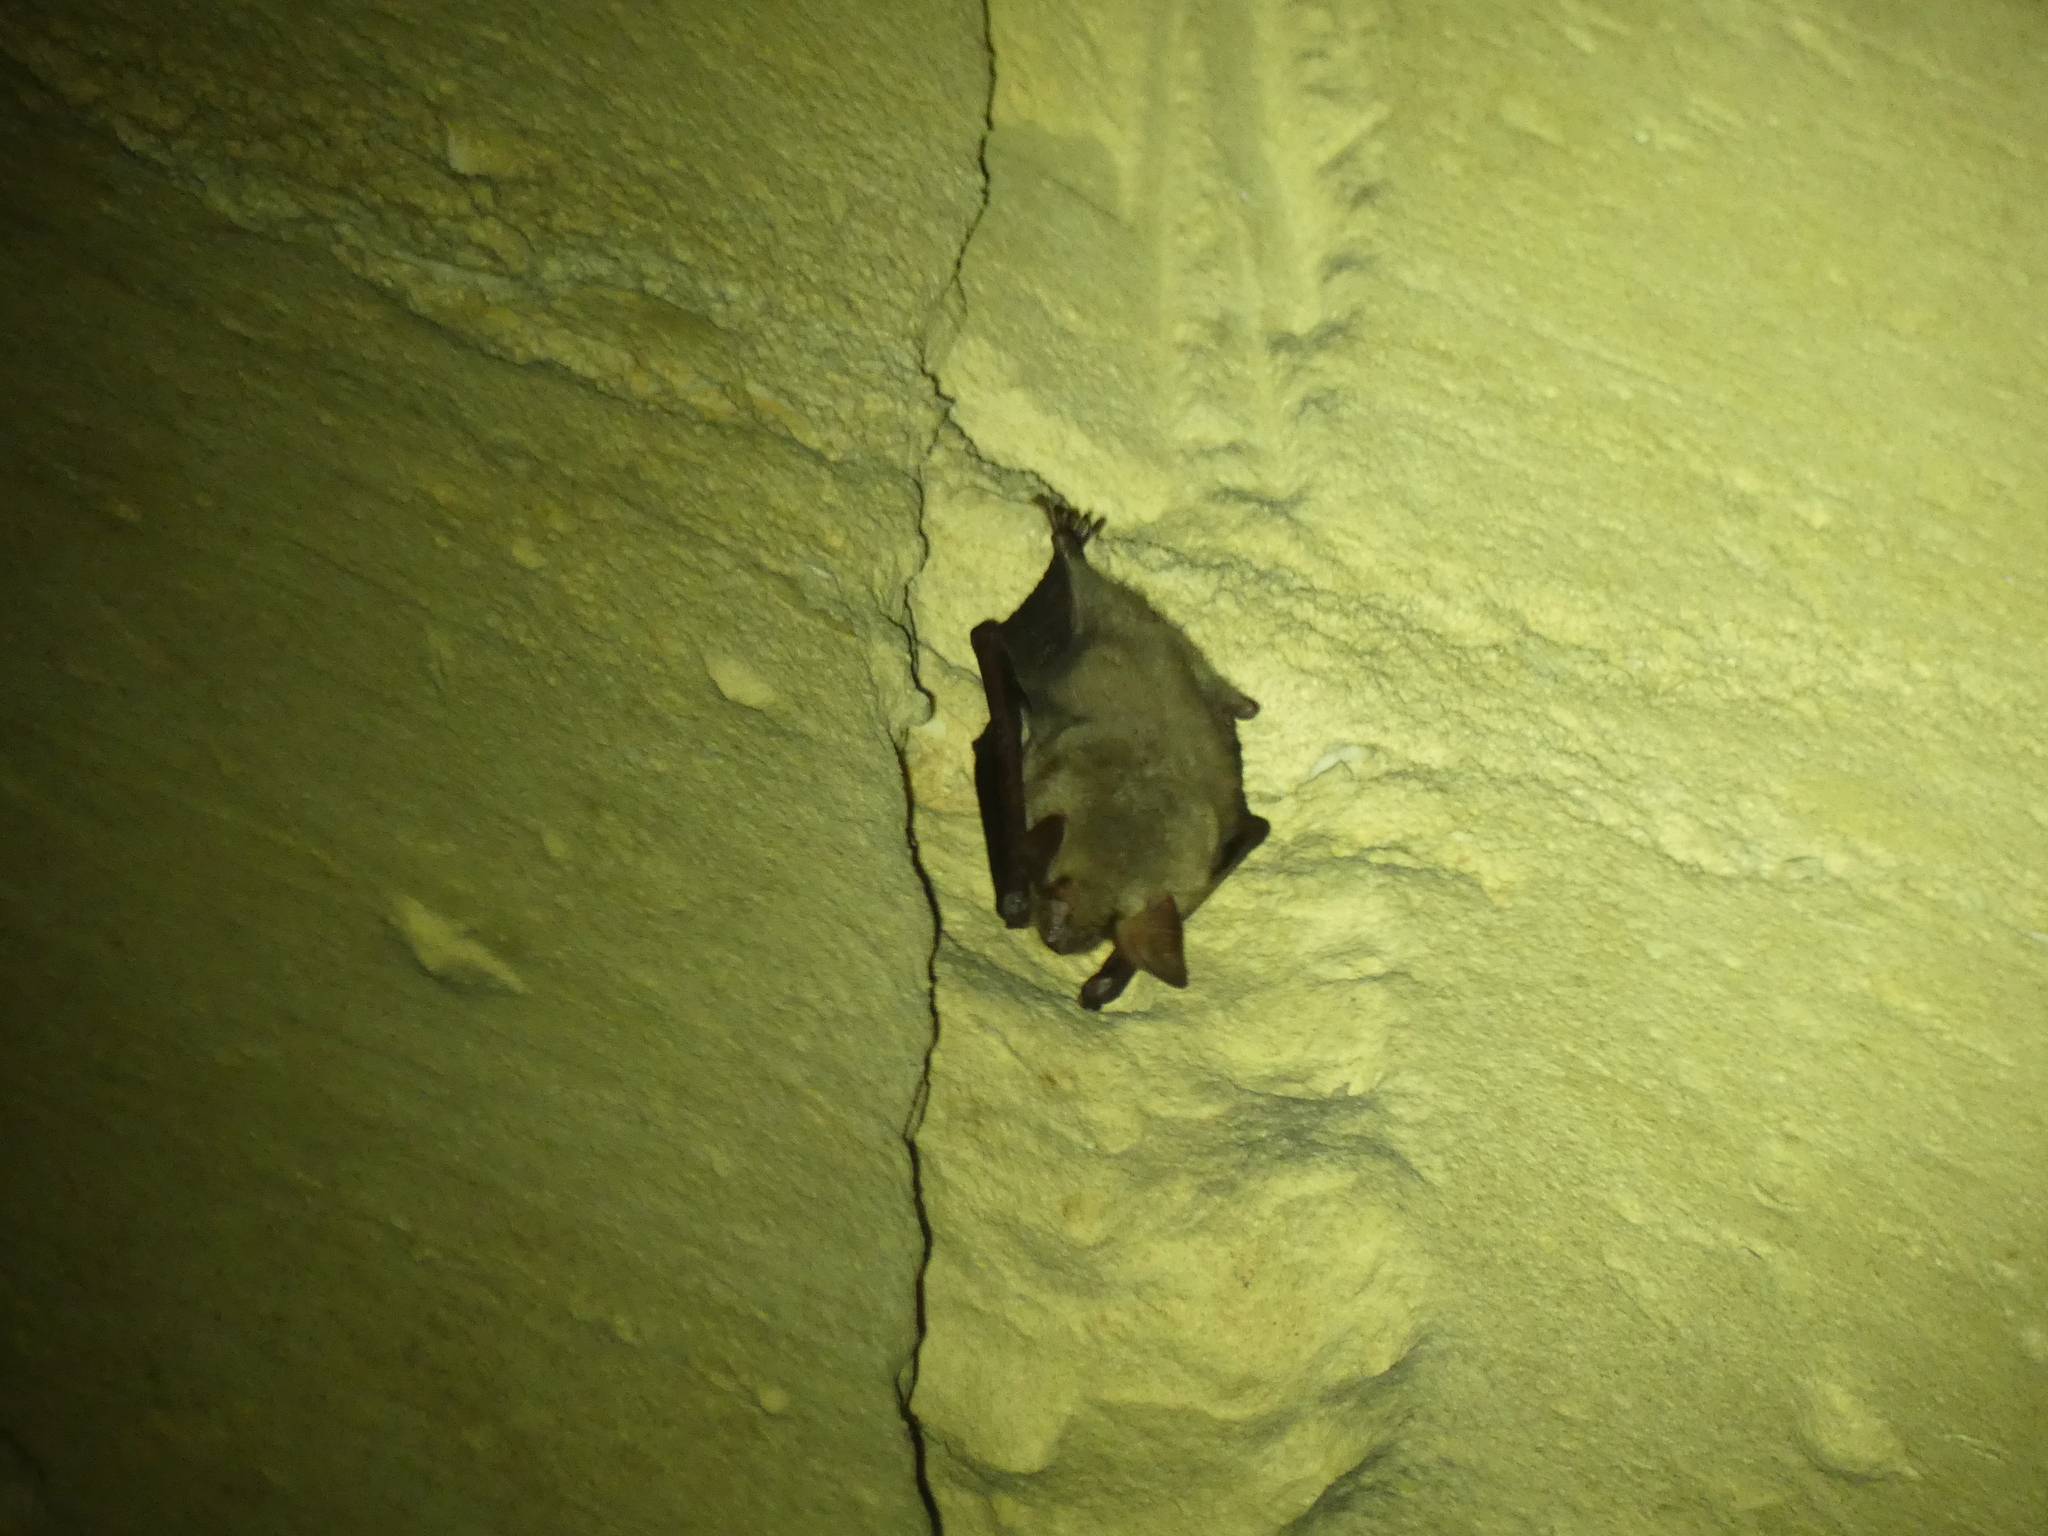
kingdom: Animalia
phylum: Chordata
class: Mammalia
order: Chiroptera
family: Vespertilionidae
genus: Myotis
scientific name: Myotis myotis
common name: Greater mouse-eared bat
